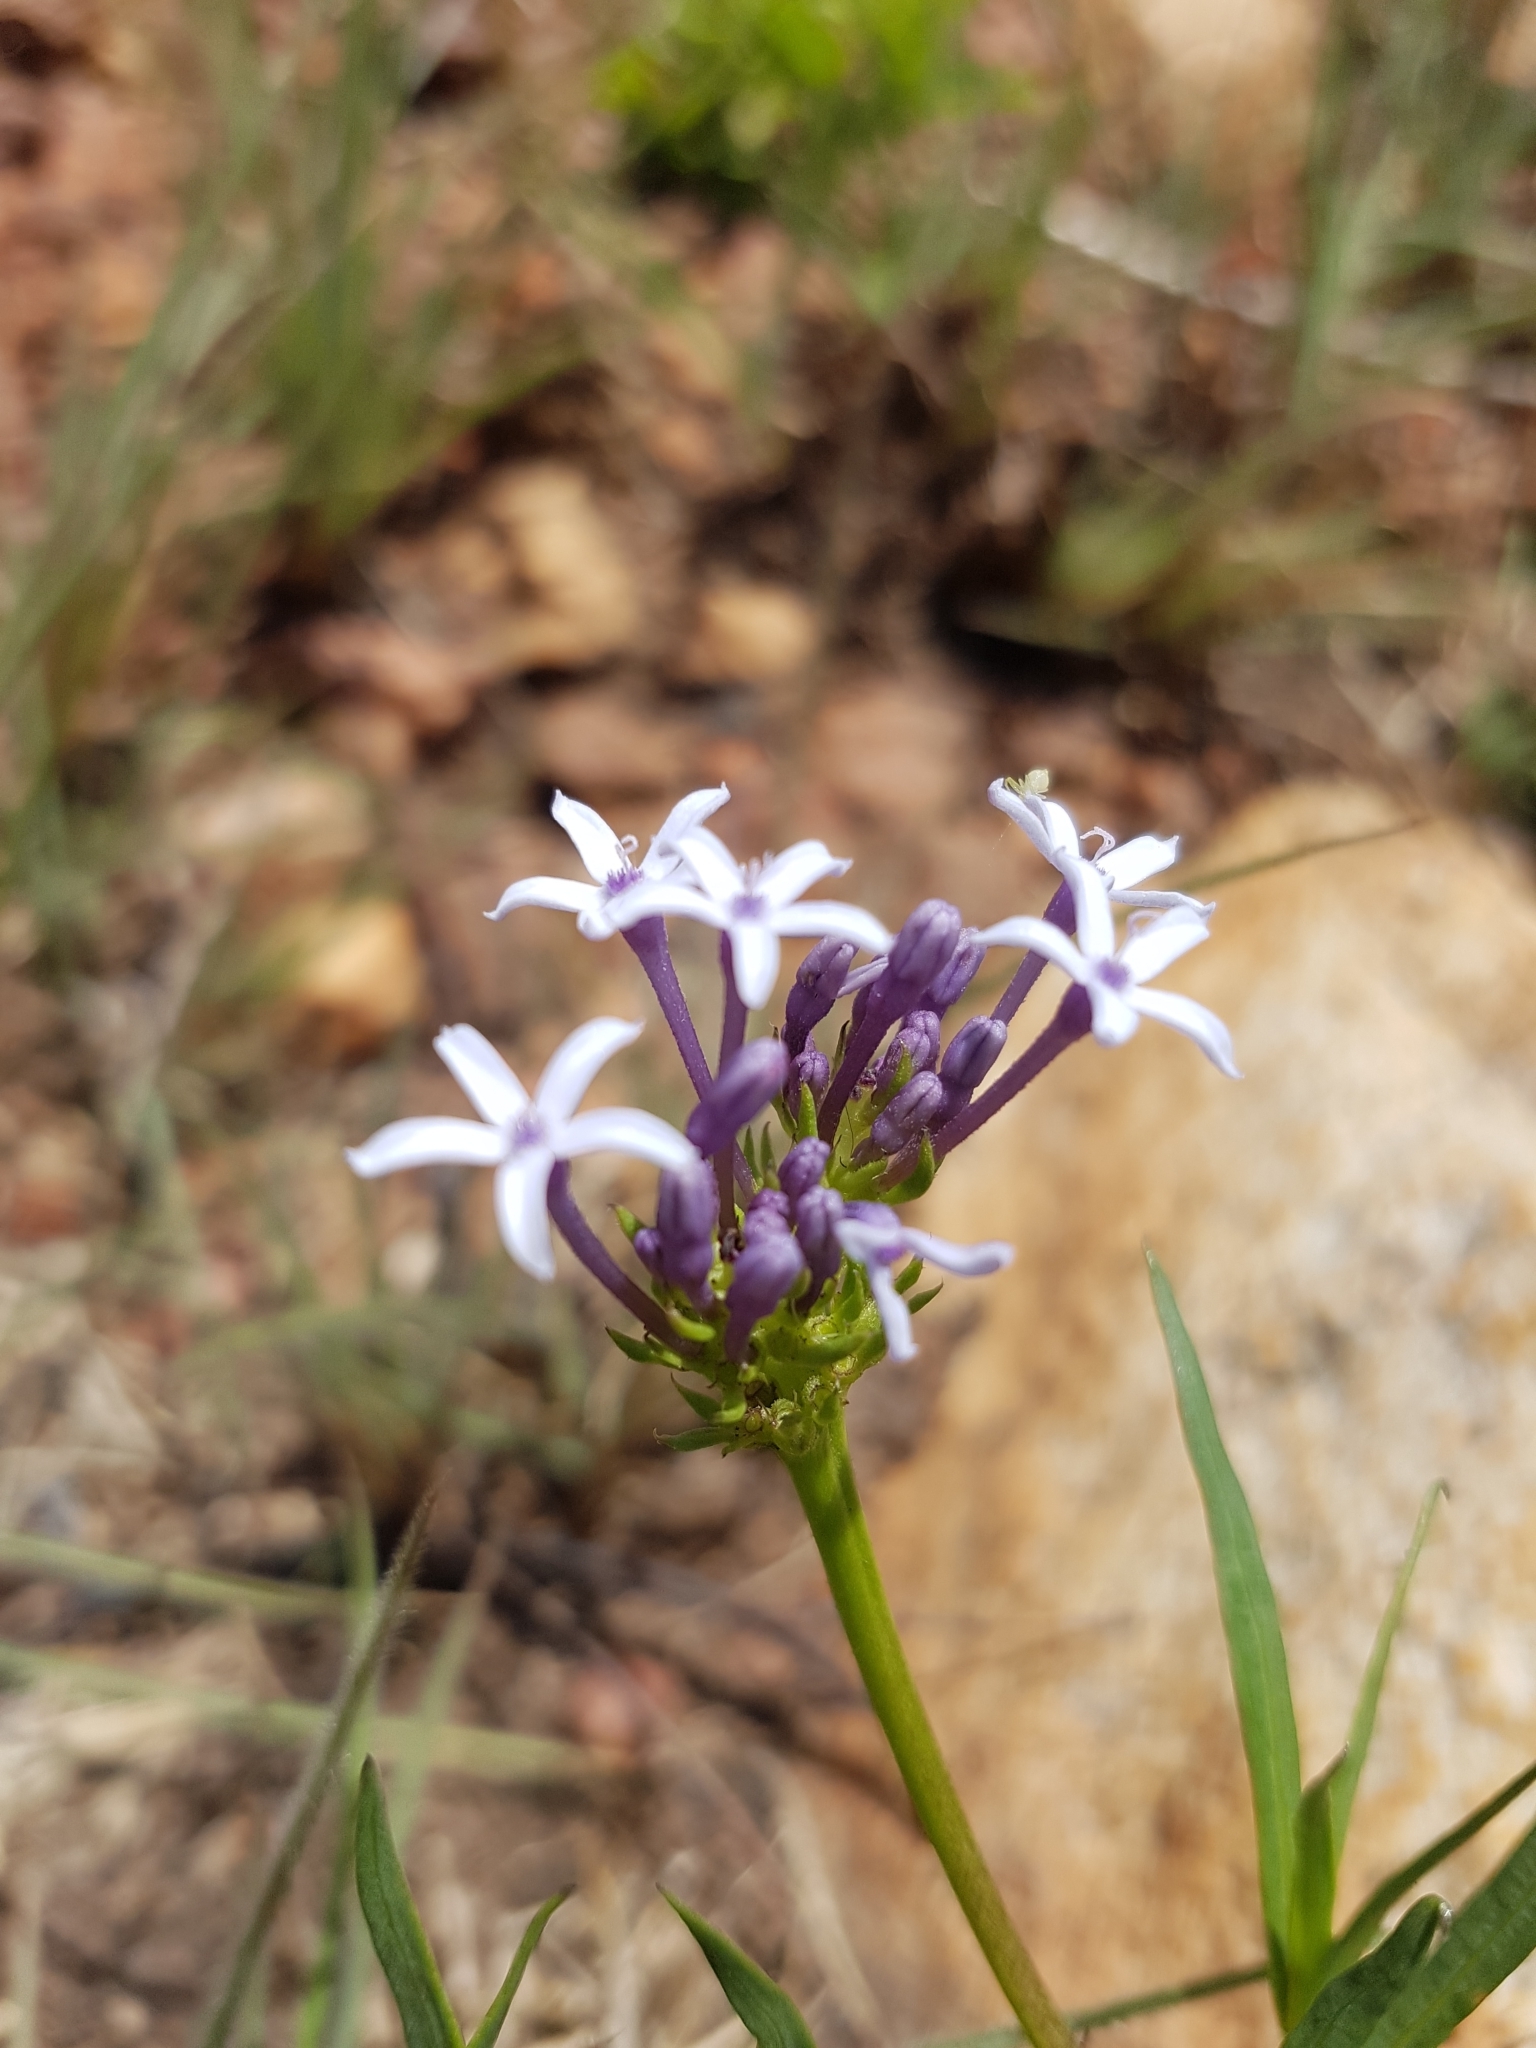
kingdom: Plantae
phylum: Tracheophyta
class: Magnoliopsida
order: Gentianales
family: Rubiaceae
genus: Pentanisia
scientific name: Pentanisia angustifolia
